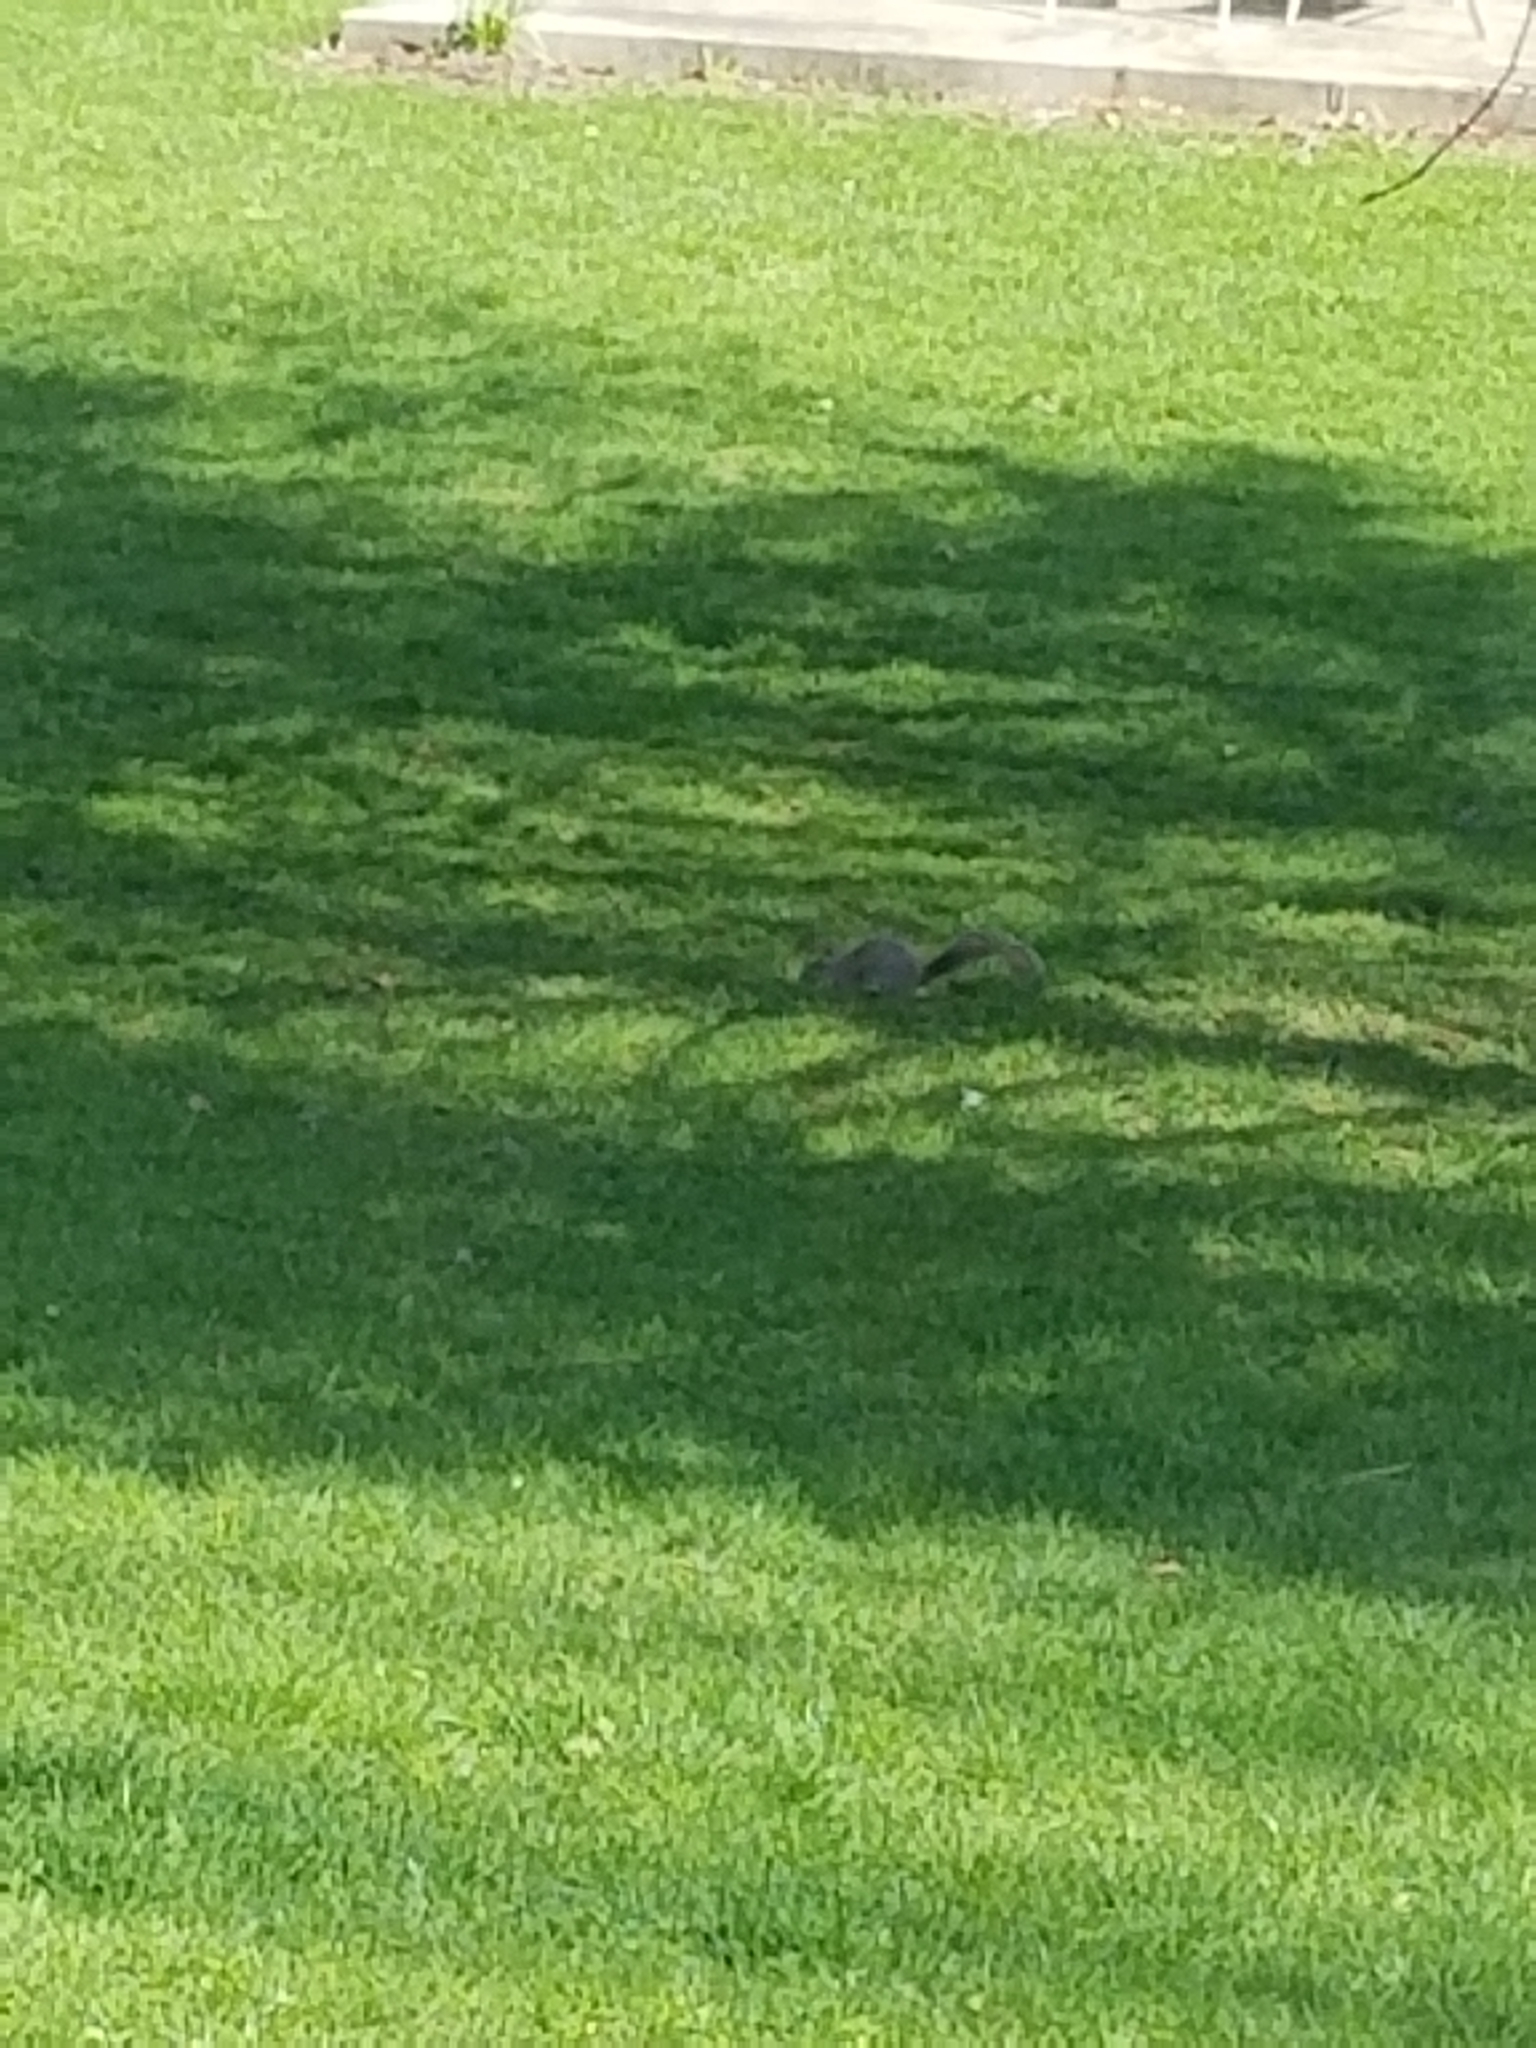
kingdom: Animalia
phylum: Chordata
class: Mammalia
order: Rodentia
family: Sciuridae
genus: Sciurus
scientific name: Sciurus carolinensis
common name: Eastern gray squirrel
